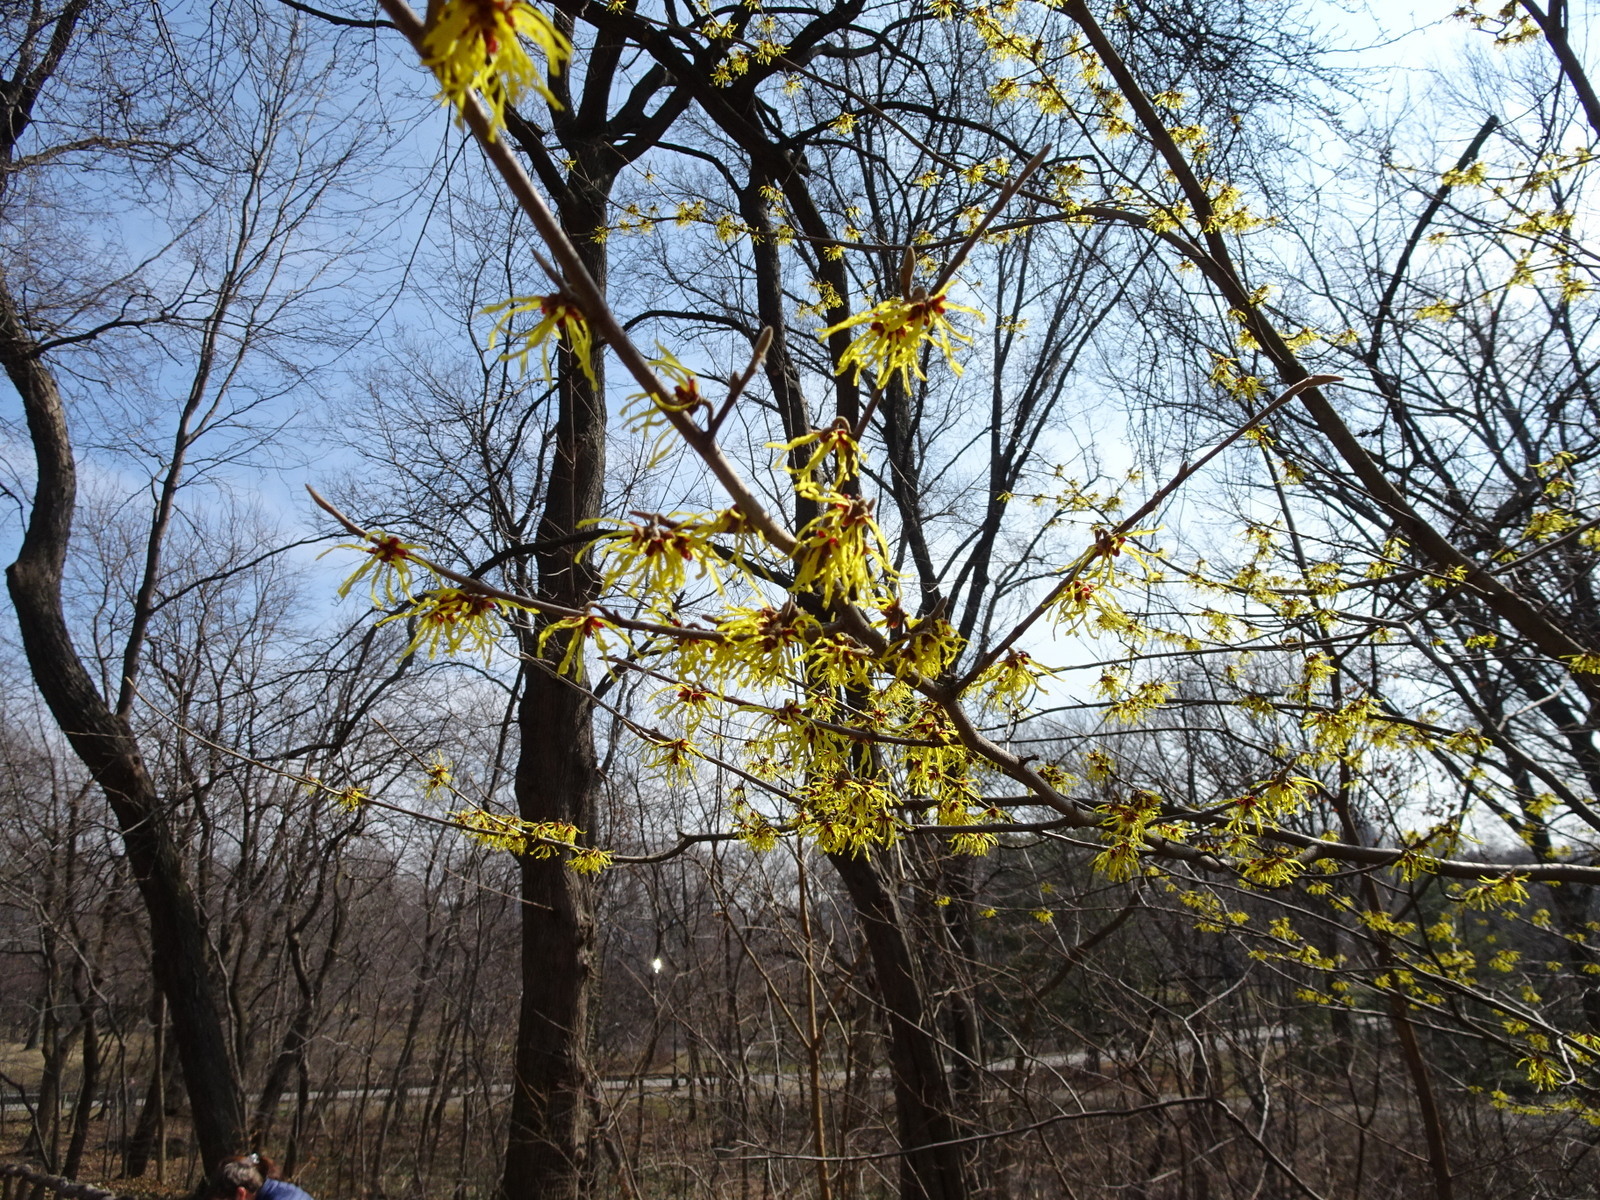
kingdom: Plantae
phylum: Tracheophyta
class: Magnoliopsida
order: Saxifragales
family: Hamamelidaceae
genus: Hamamelis
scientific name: Hamamelis virginiana
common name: Witch-hazel
